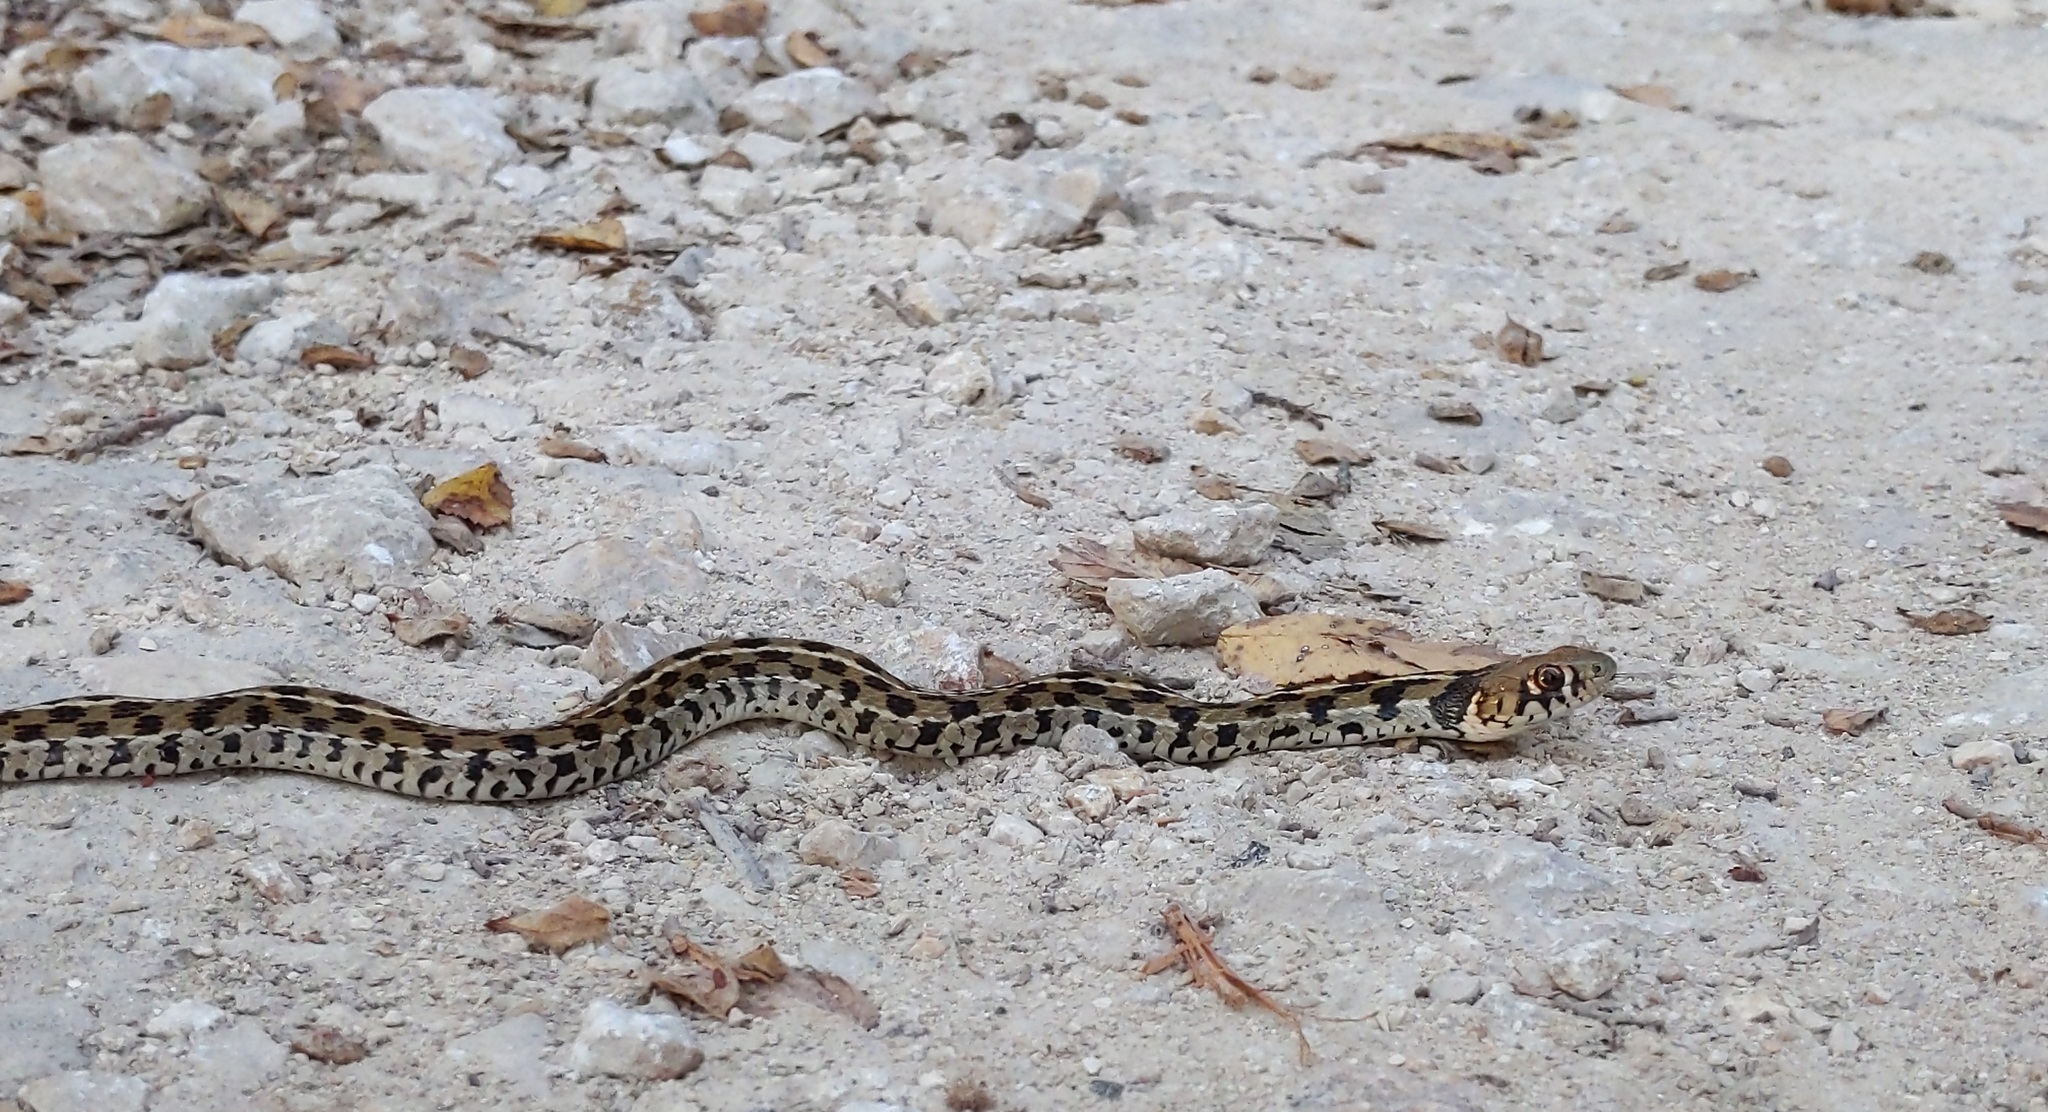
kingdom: Animalia
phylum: Chordata
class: Squamata
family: Colubridae
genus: Thamnophis
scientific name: Thamnophis marcianus
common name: Checkered garter snake
